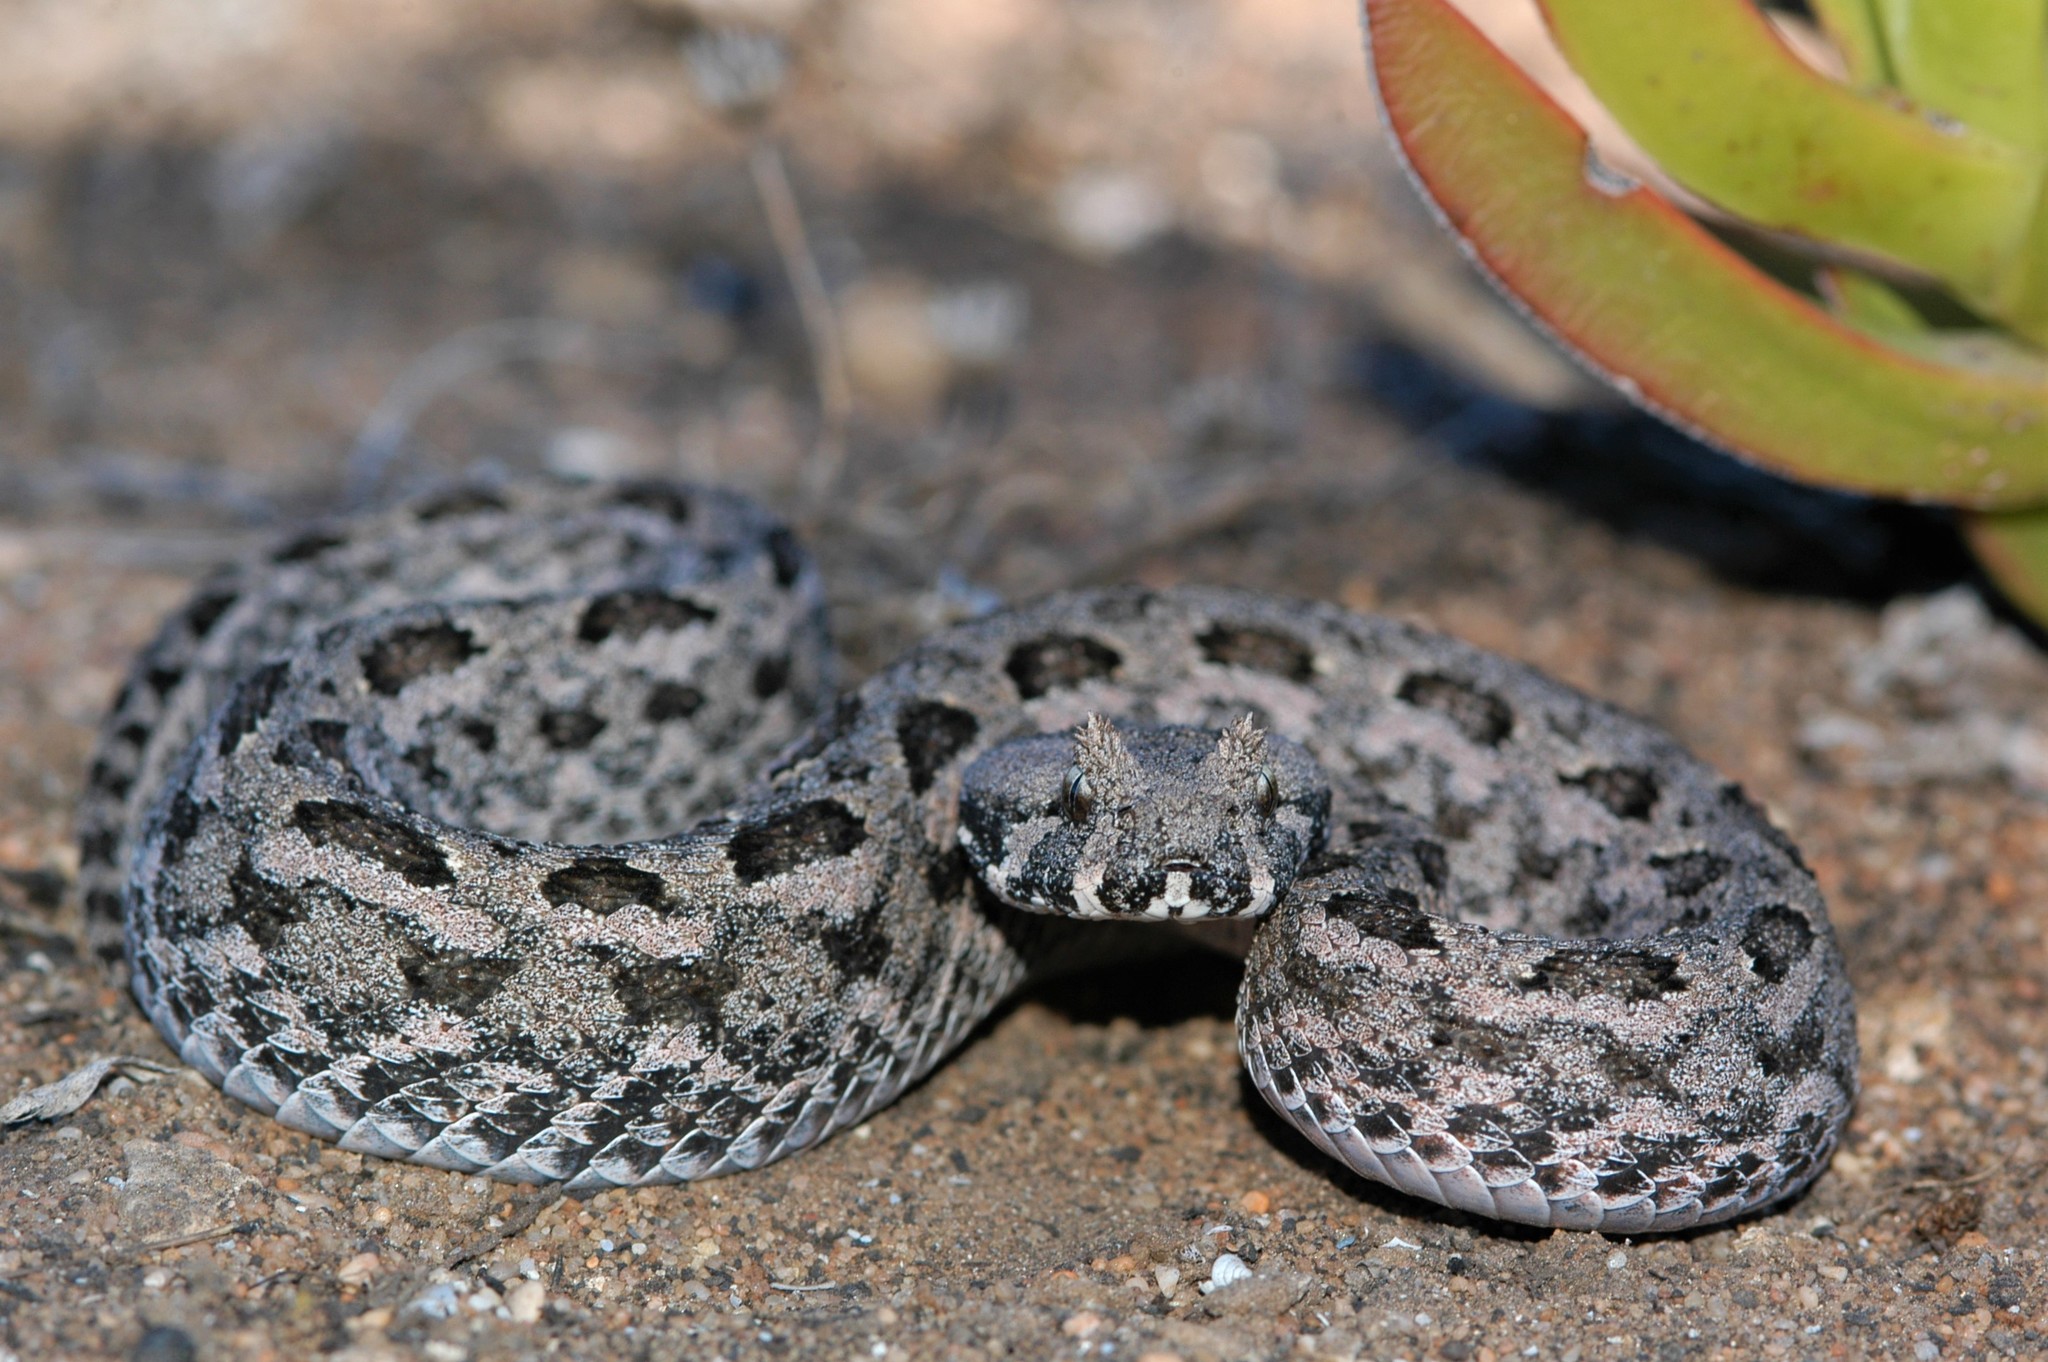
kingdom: Animalia
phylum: Chordata
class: Squamata
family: Viperidae
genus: Bitis
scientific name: Bitis armata
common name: Southern adder
